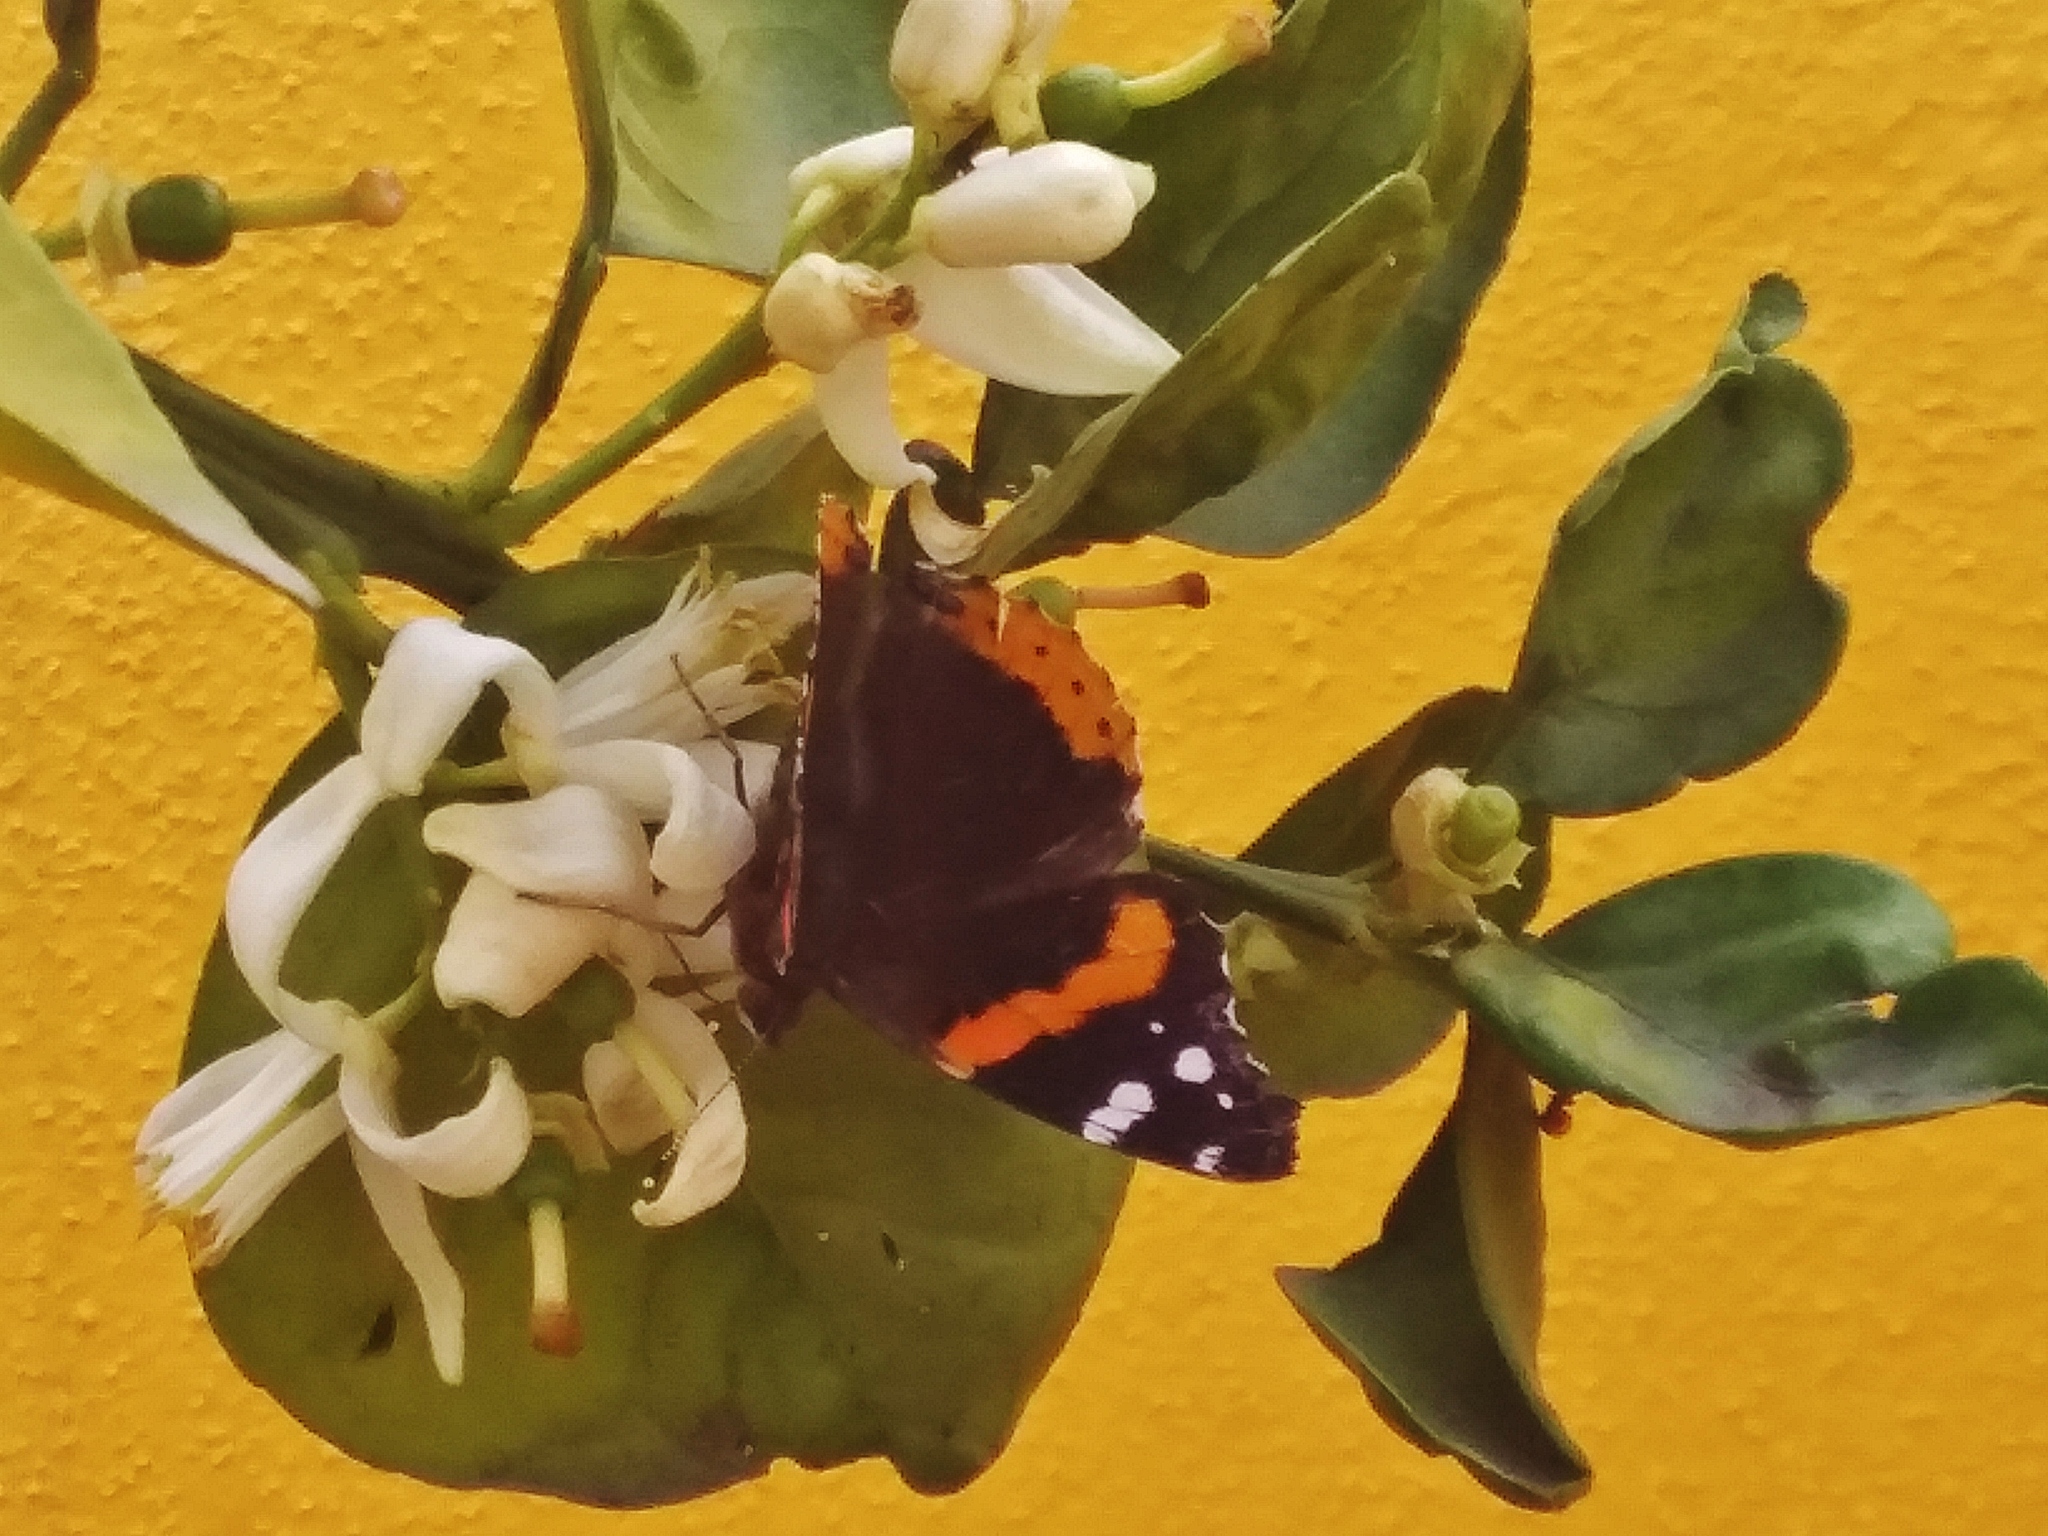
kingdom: Animalia
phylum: Arthropoda
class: Insecta
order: Lepidoptera
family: Nymphalidae
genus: Vanessa
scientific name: Vanessa atalanta
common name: Red admiral
